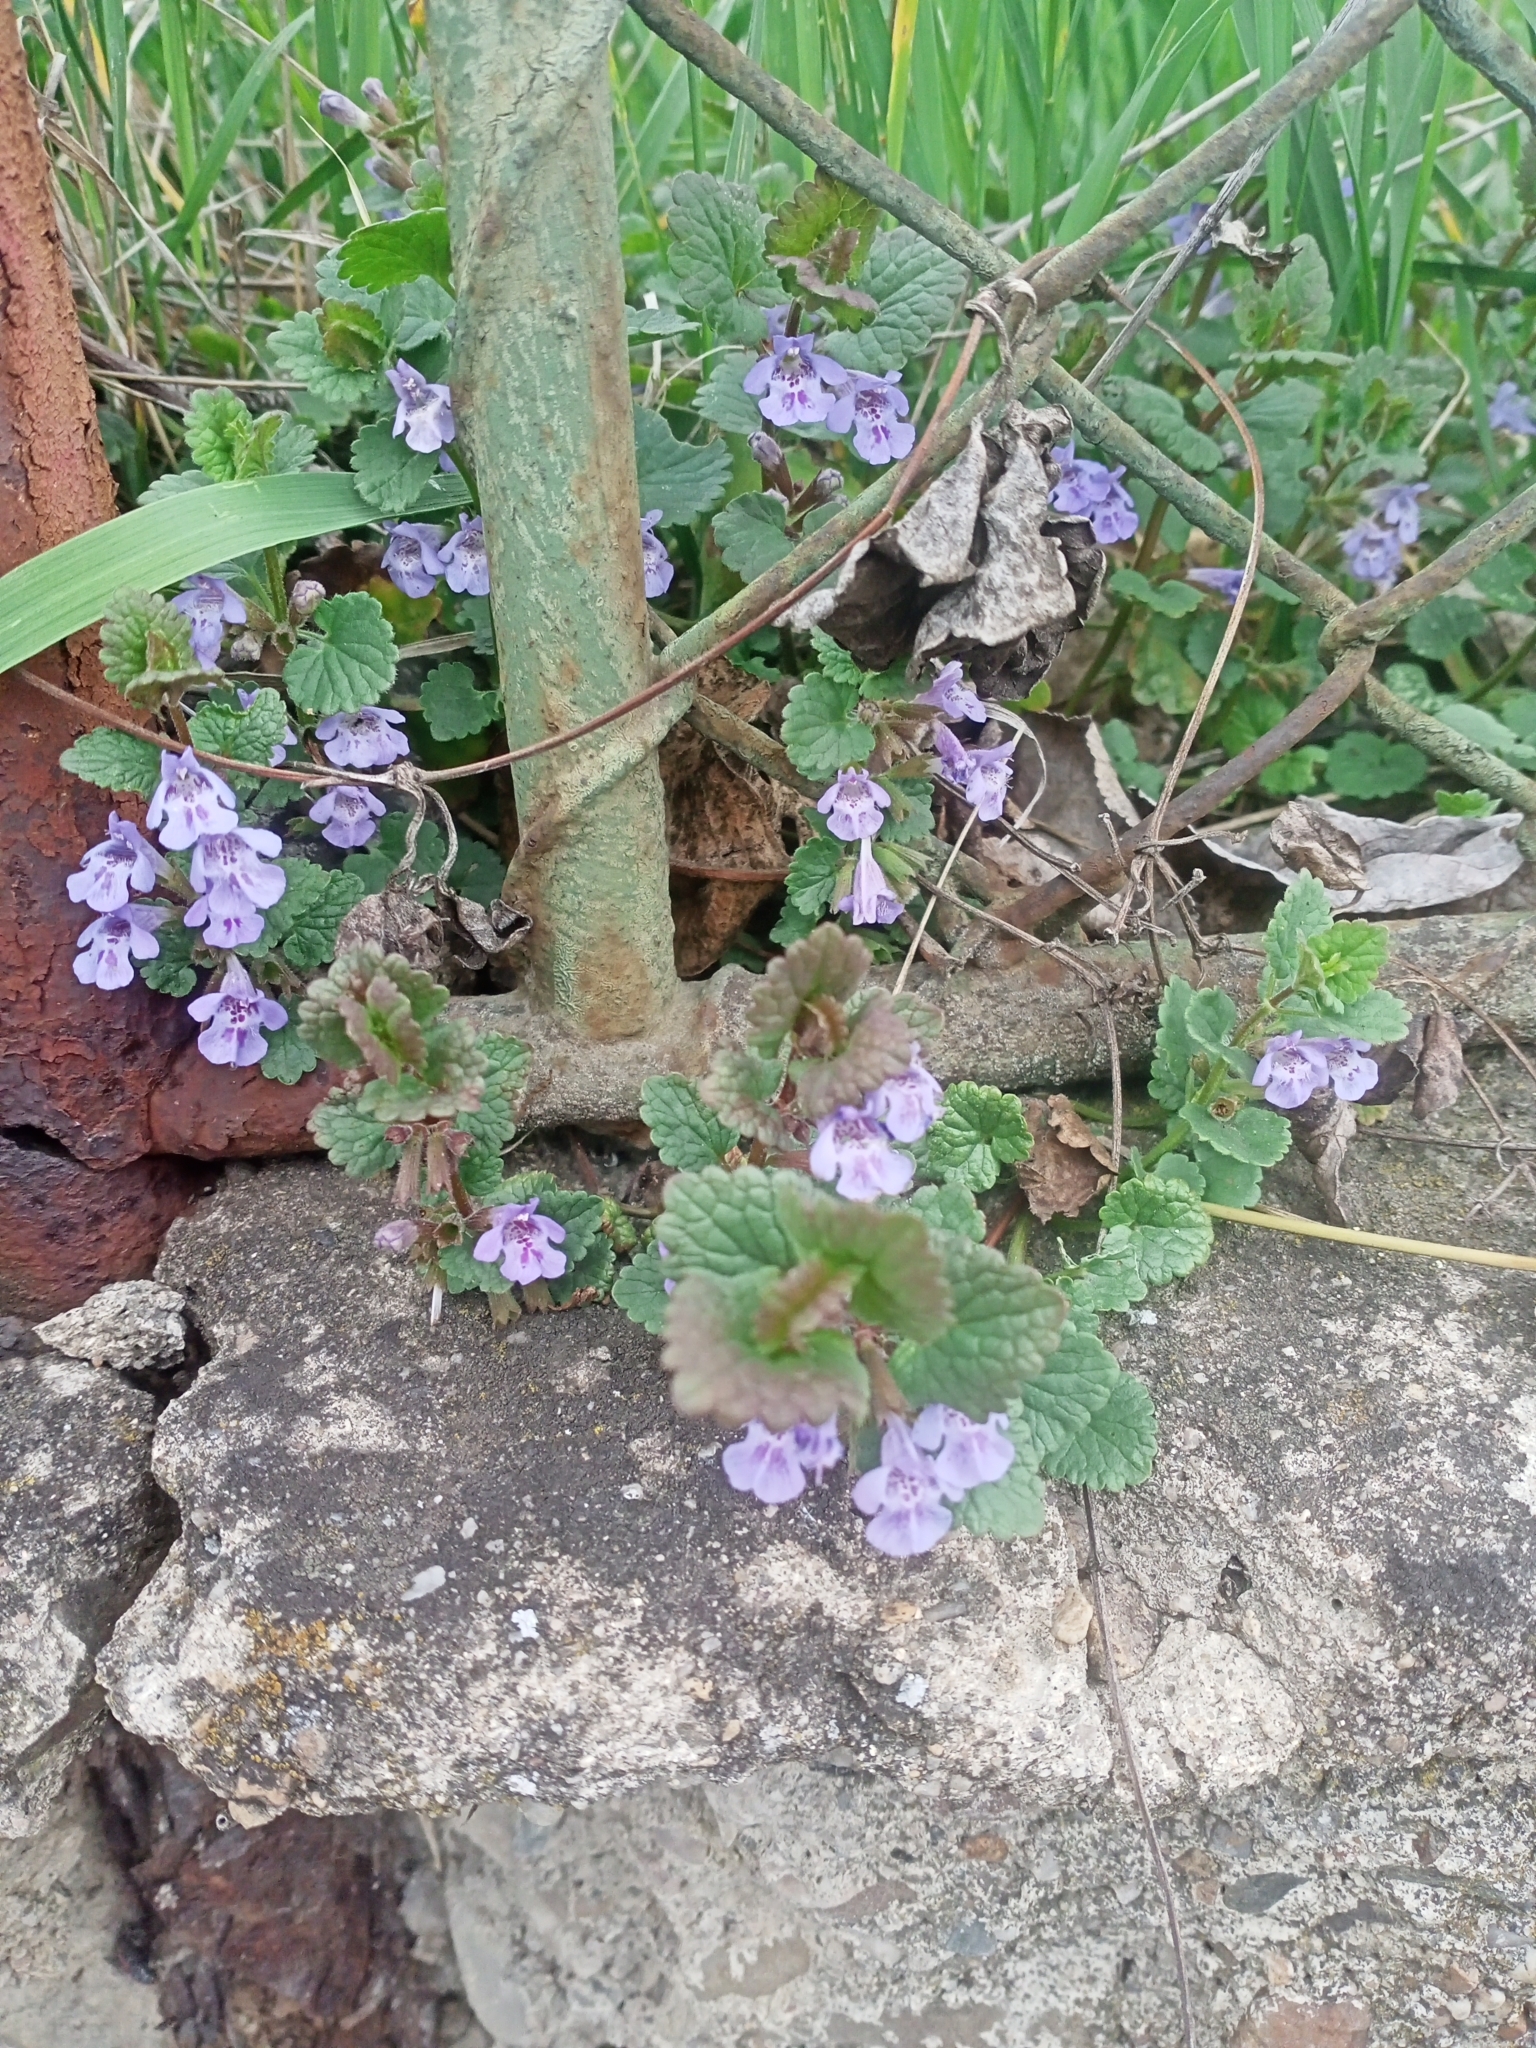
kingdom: Plantae
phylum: Tracheophyta
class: Magnoliopsida
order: Lamiales
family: Lamiaceae
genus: Glechoma
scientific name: Glechoma hederacea
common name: Ground ivy
